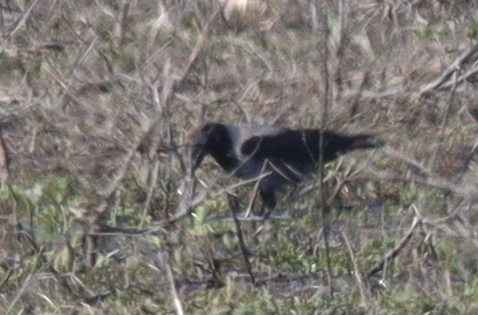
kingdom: Animalia
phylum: Chordata
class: Aves
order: Passeriformes
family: Corvidae
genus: Corvus
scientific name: Corvus cornix
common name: Hooded crow
